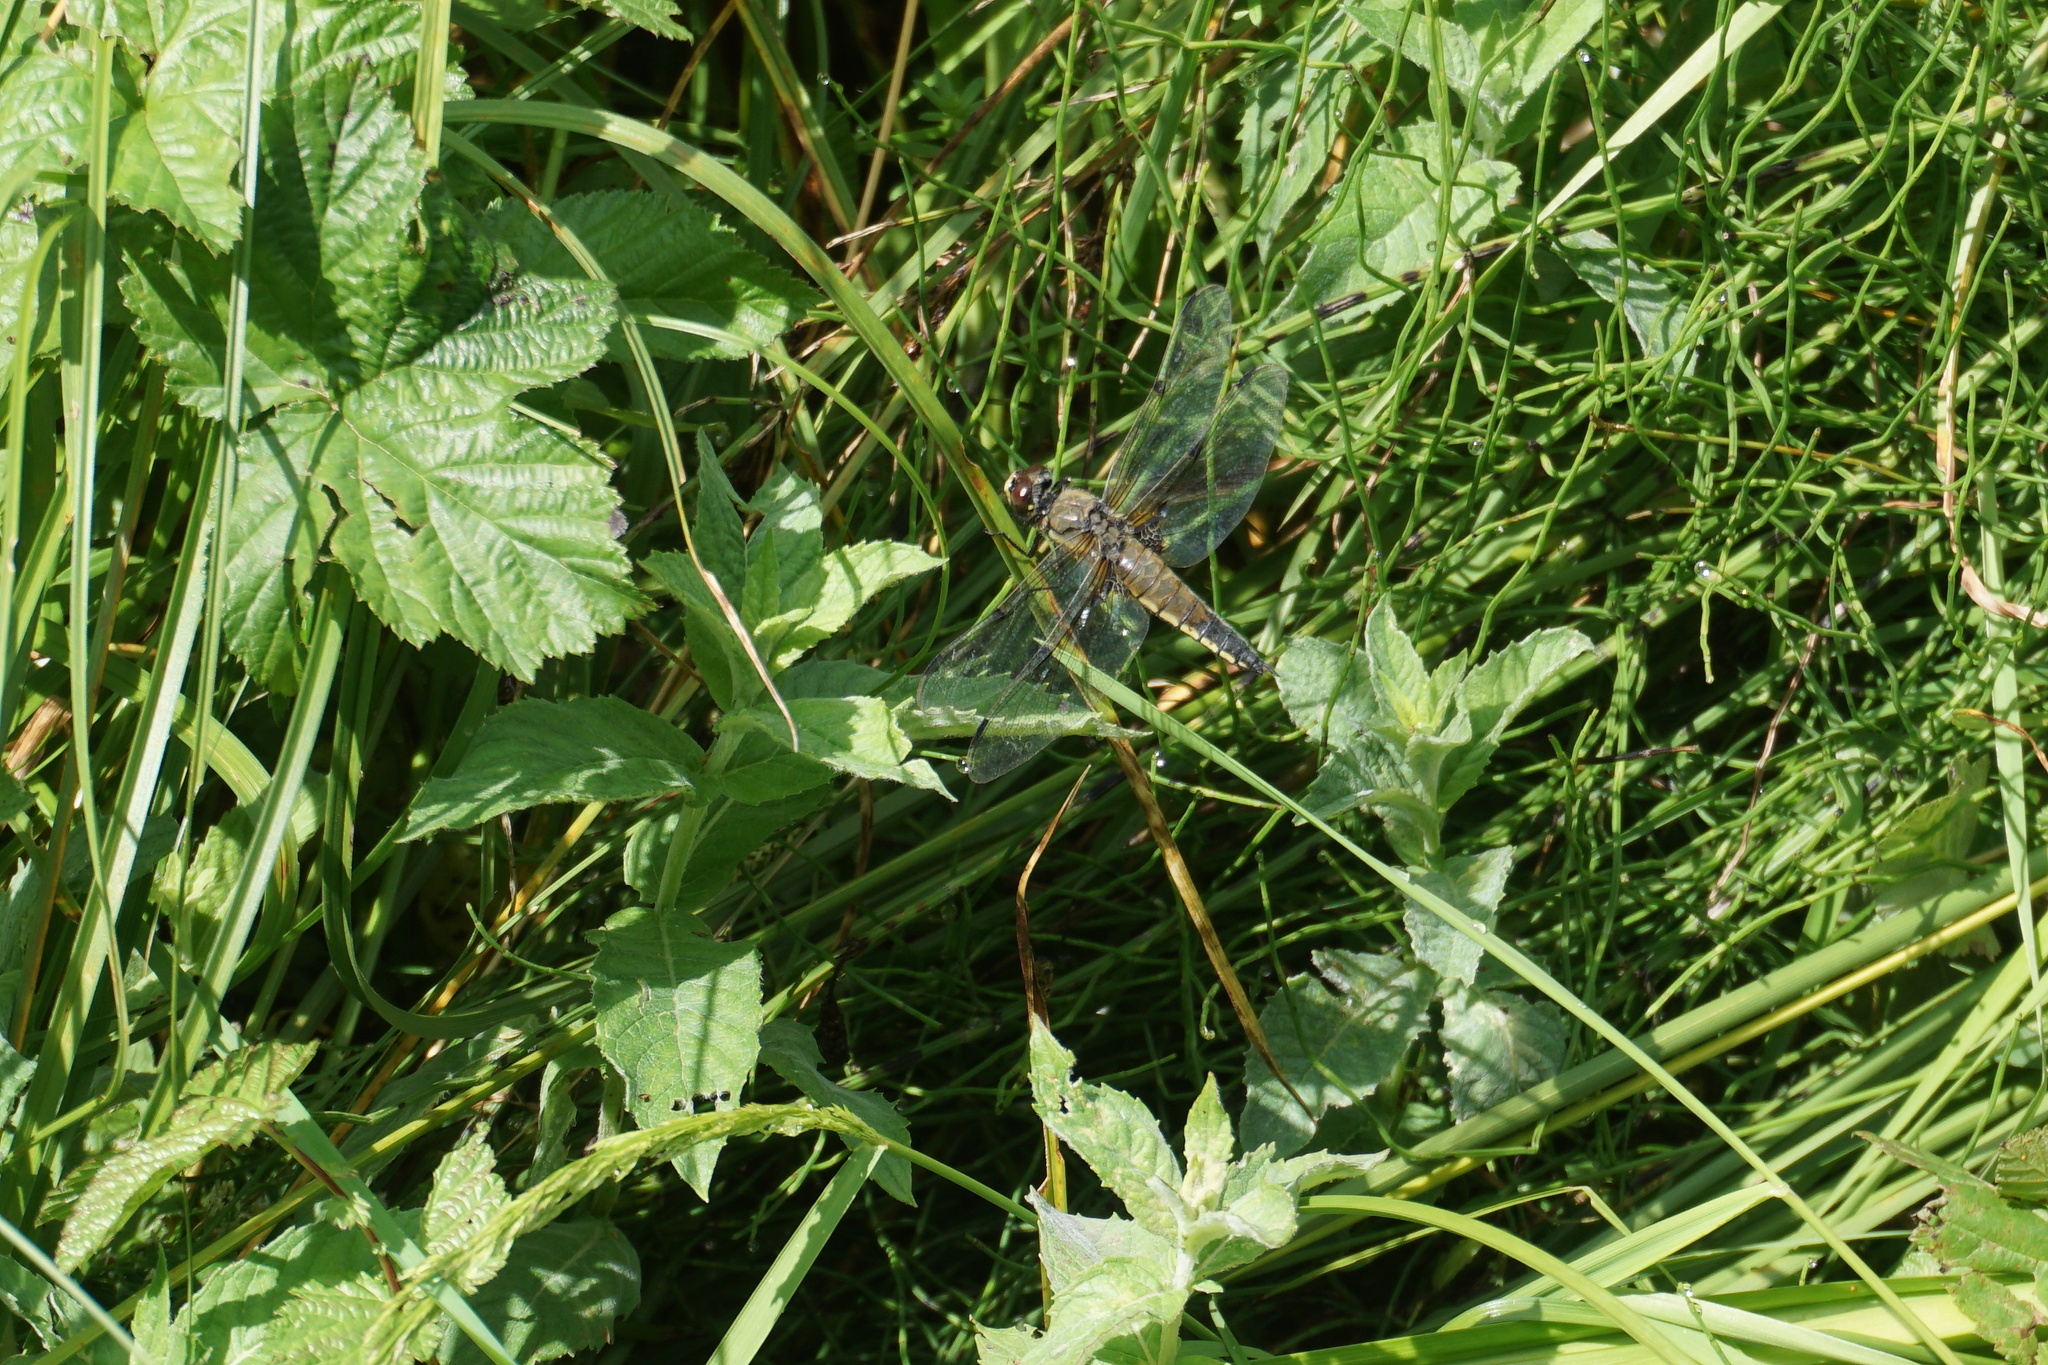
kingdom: Animalia
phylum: Arthropoda
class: Insecta
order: Odonata
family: Libellulidae
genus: Libellula
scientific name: Libellula quadrimaculata
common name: Four-spotted chaser
